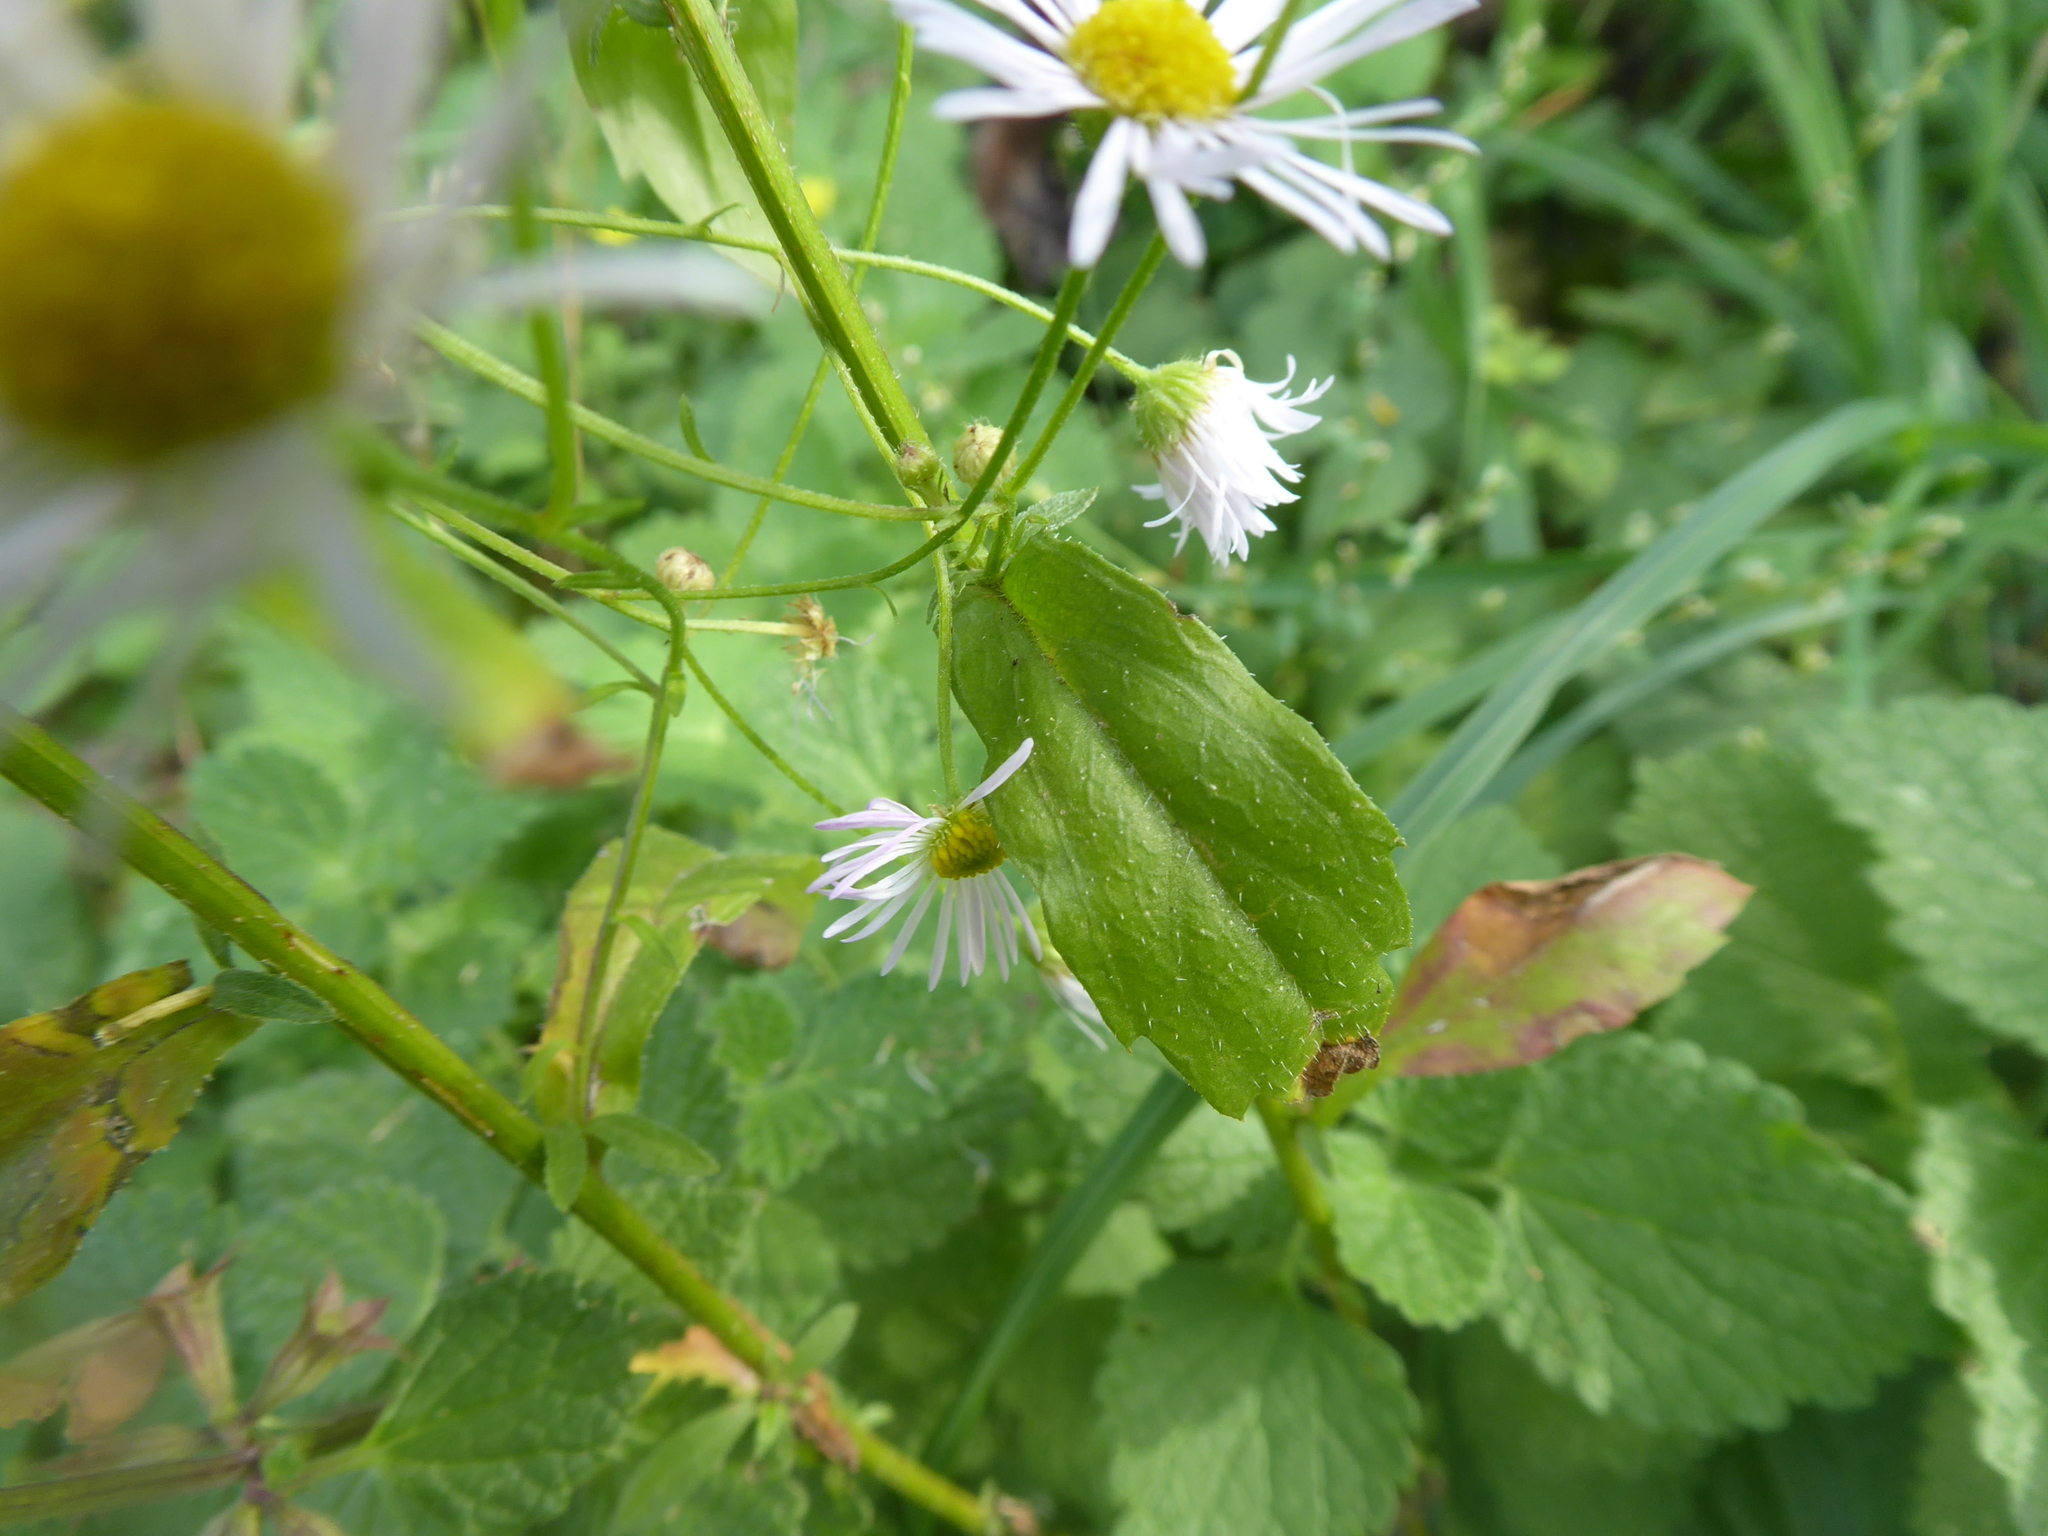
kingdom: Plantae
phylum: Tracheophyta
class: Magnoliopsida
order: Asterales
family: Asteraceae
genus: Erigeron
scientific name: Erigeron annuus
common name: Tall fleabane
